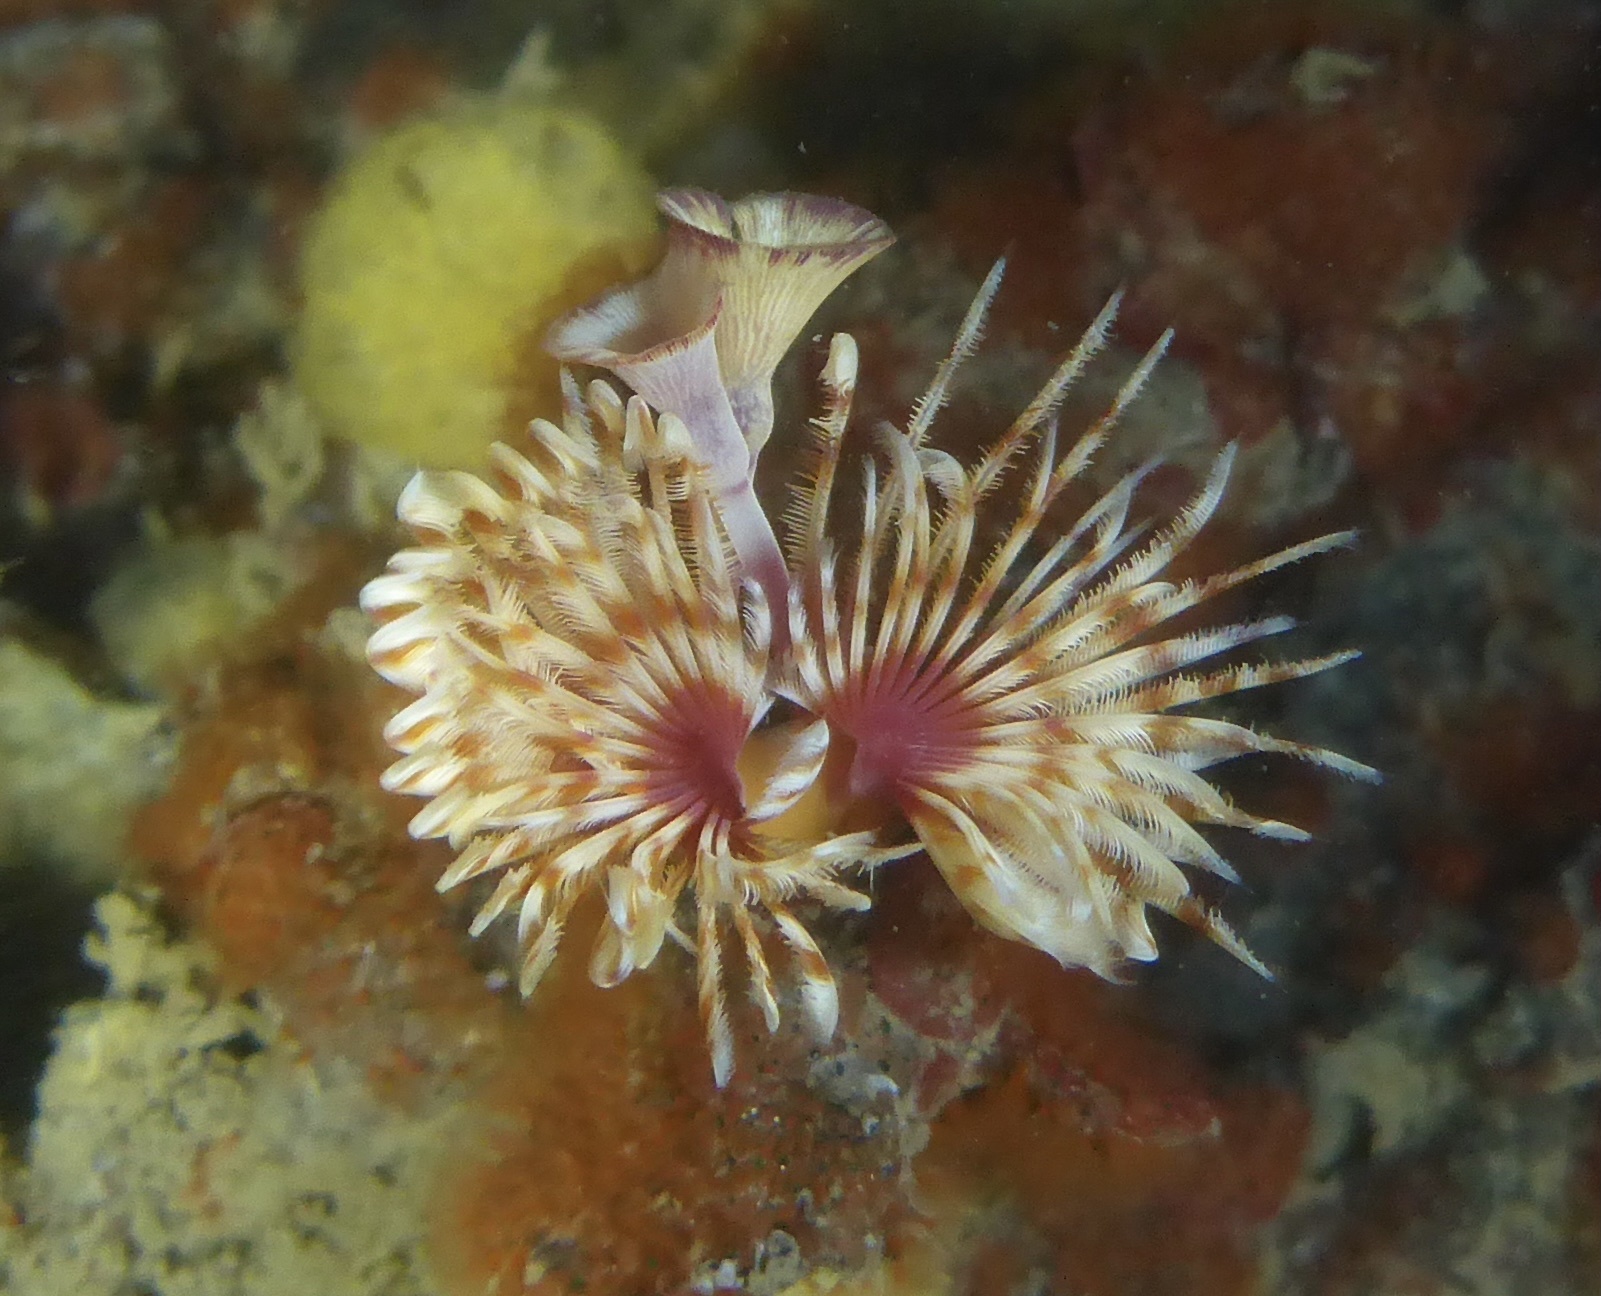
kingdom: Animalia
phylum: Annelida
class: Polychaeta
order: Sabellida
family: Serpulidae
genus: Serpula
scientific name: Serpula columbiana
